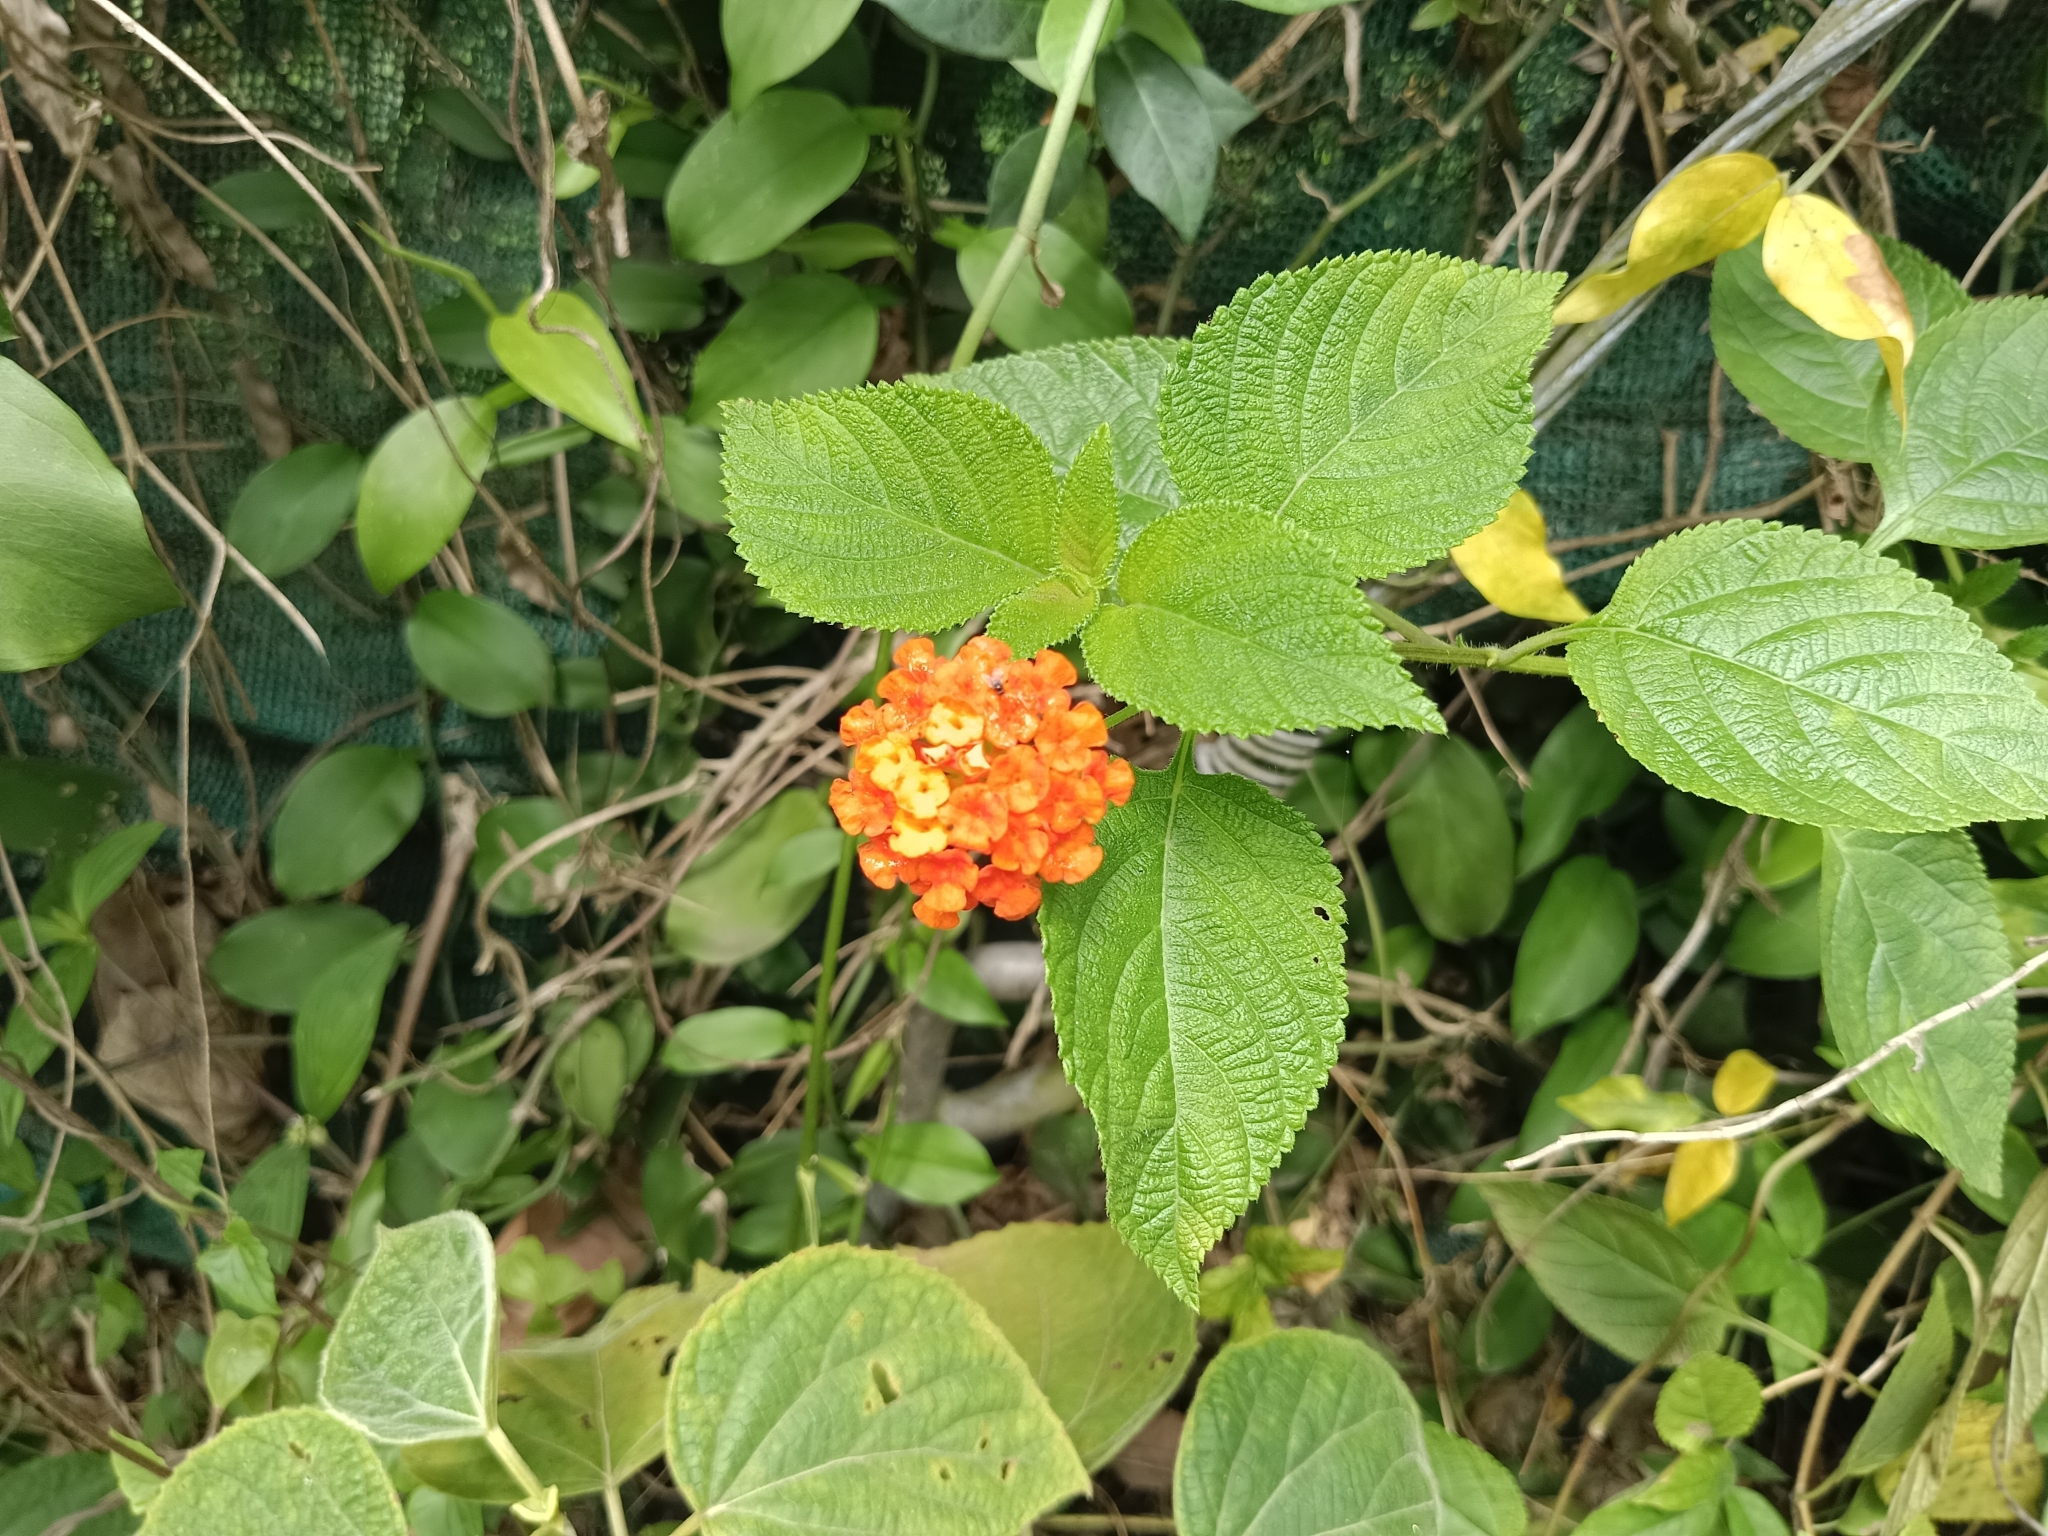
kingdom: Plantae
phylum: Tracheophyta
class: Magnoliopsida
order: Lamiales
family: Verbenaceae
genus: Lantana
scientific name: Lantana camara
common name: Lantana
